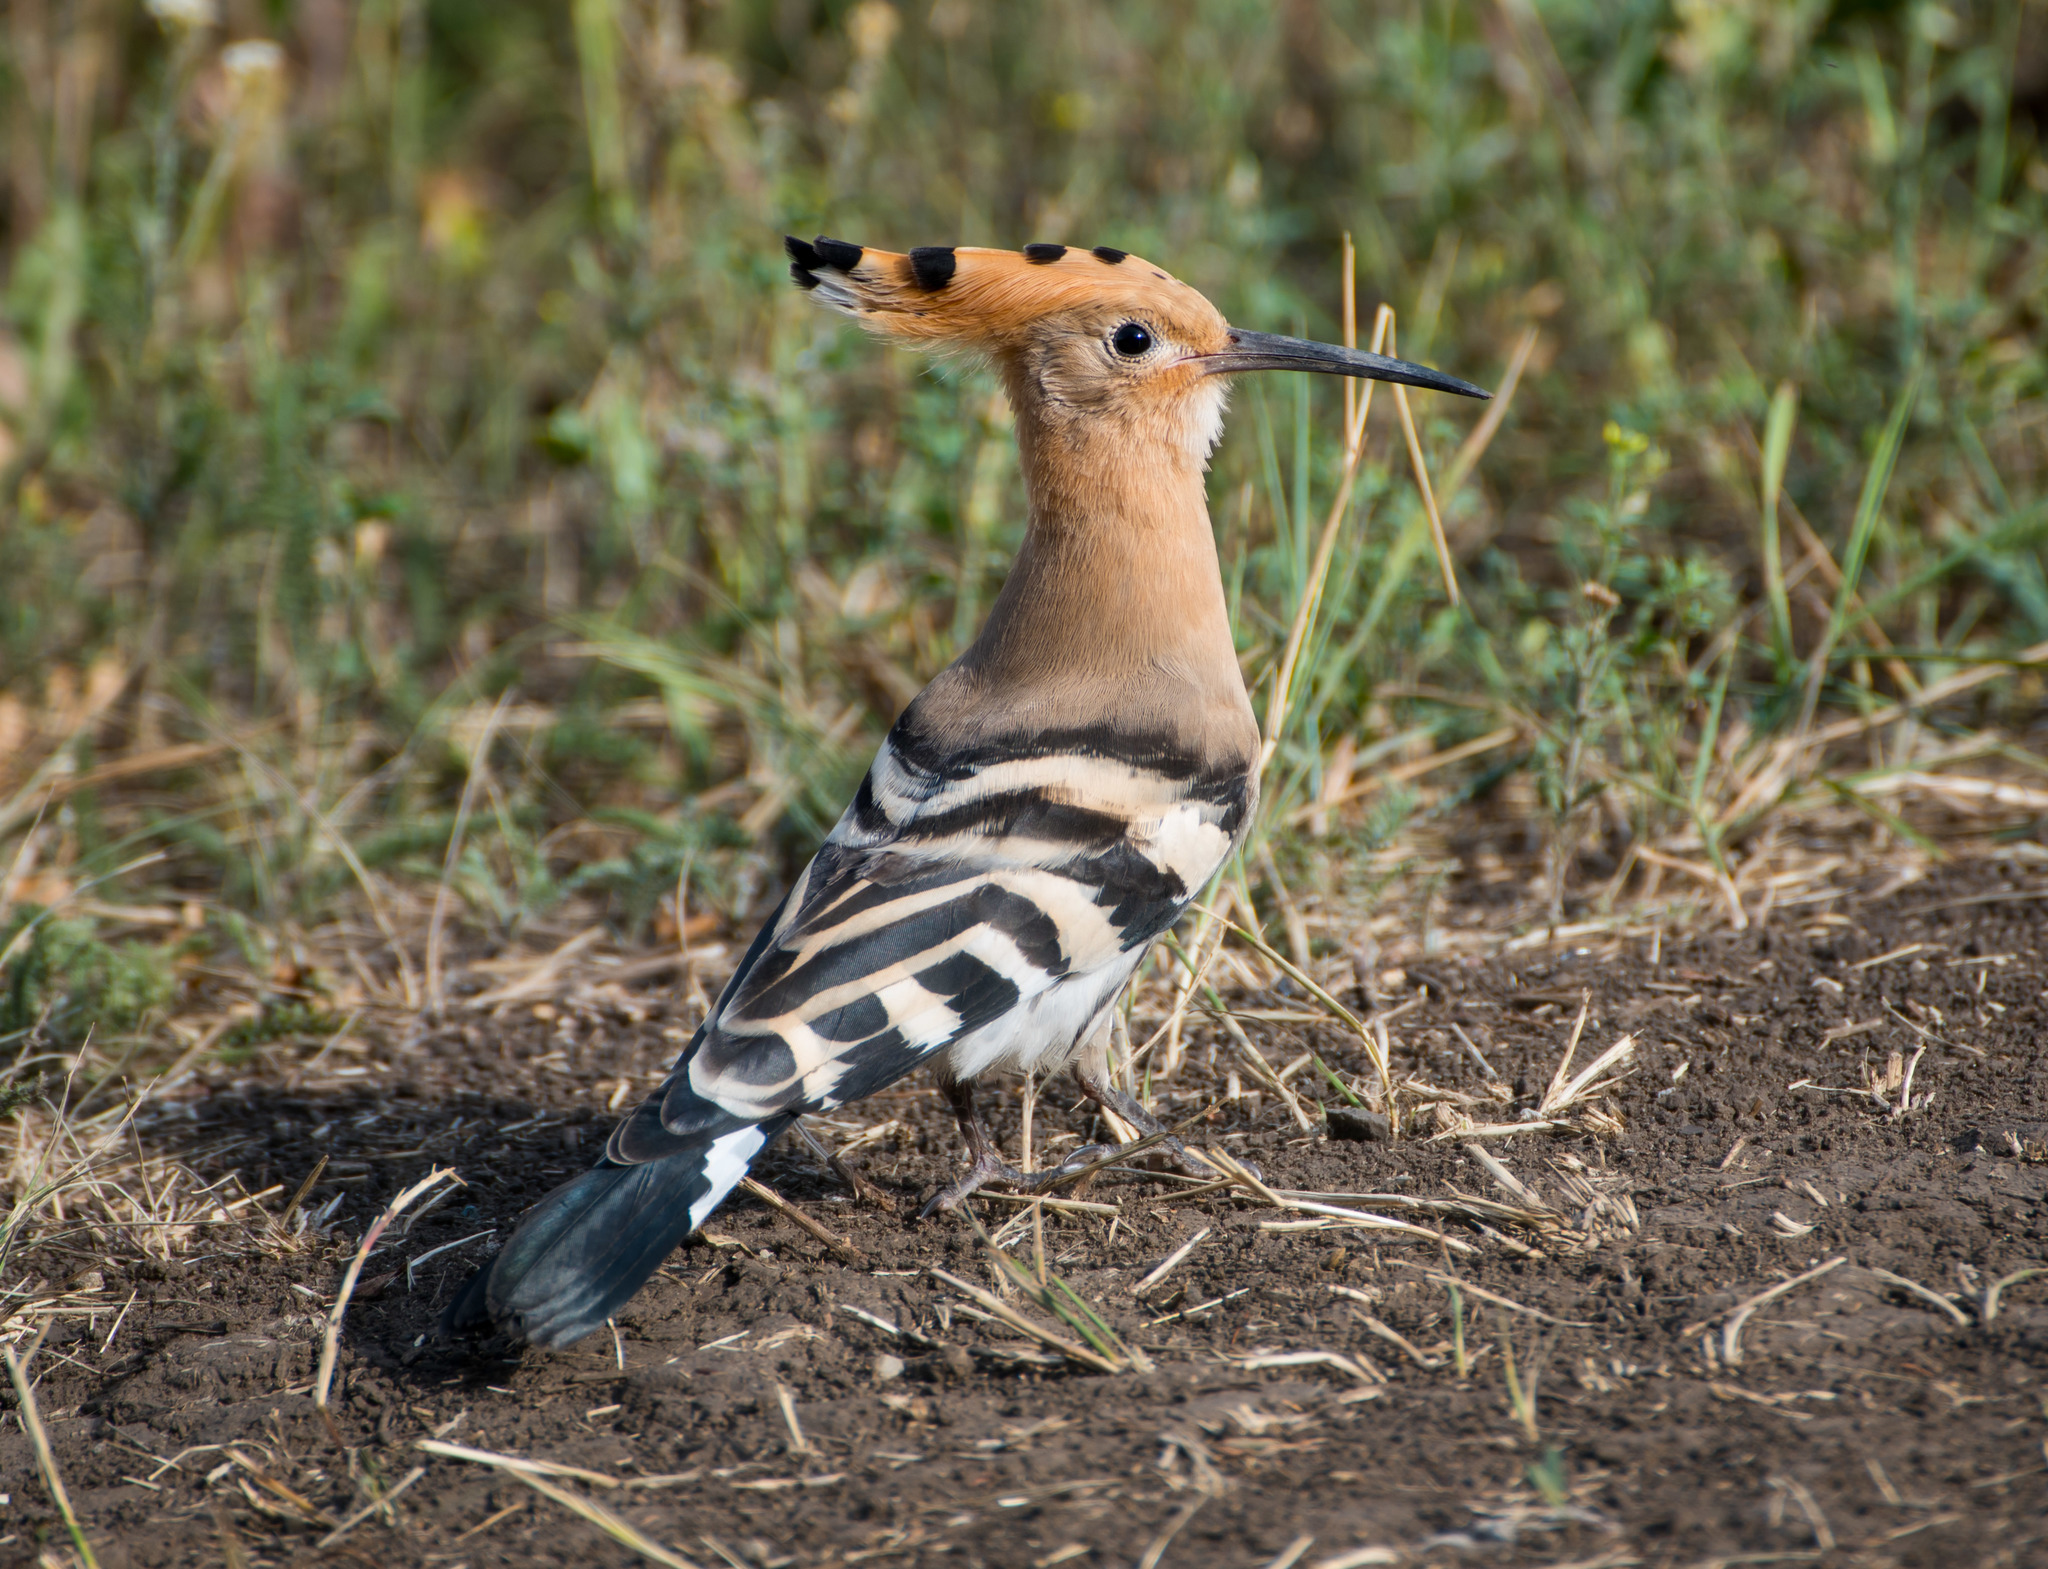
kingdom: Animalia
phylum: Chordata
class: Aves
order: Bucerotiformes
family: Upupidae
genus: Upupa
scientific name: Upupa epops
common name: Eurasian hoopoe
